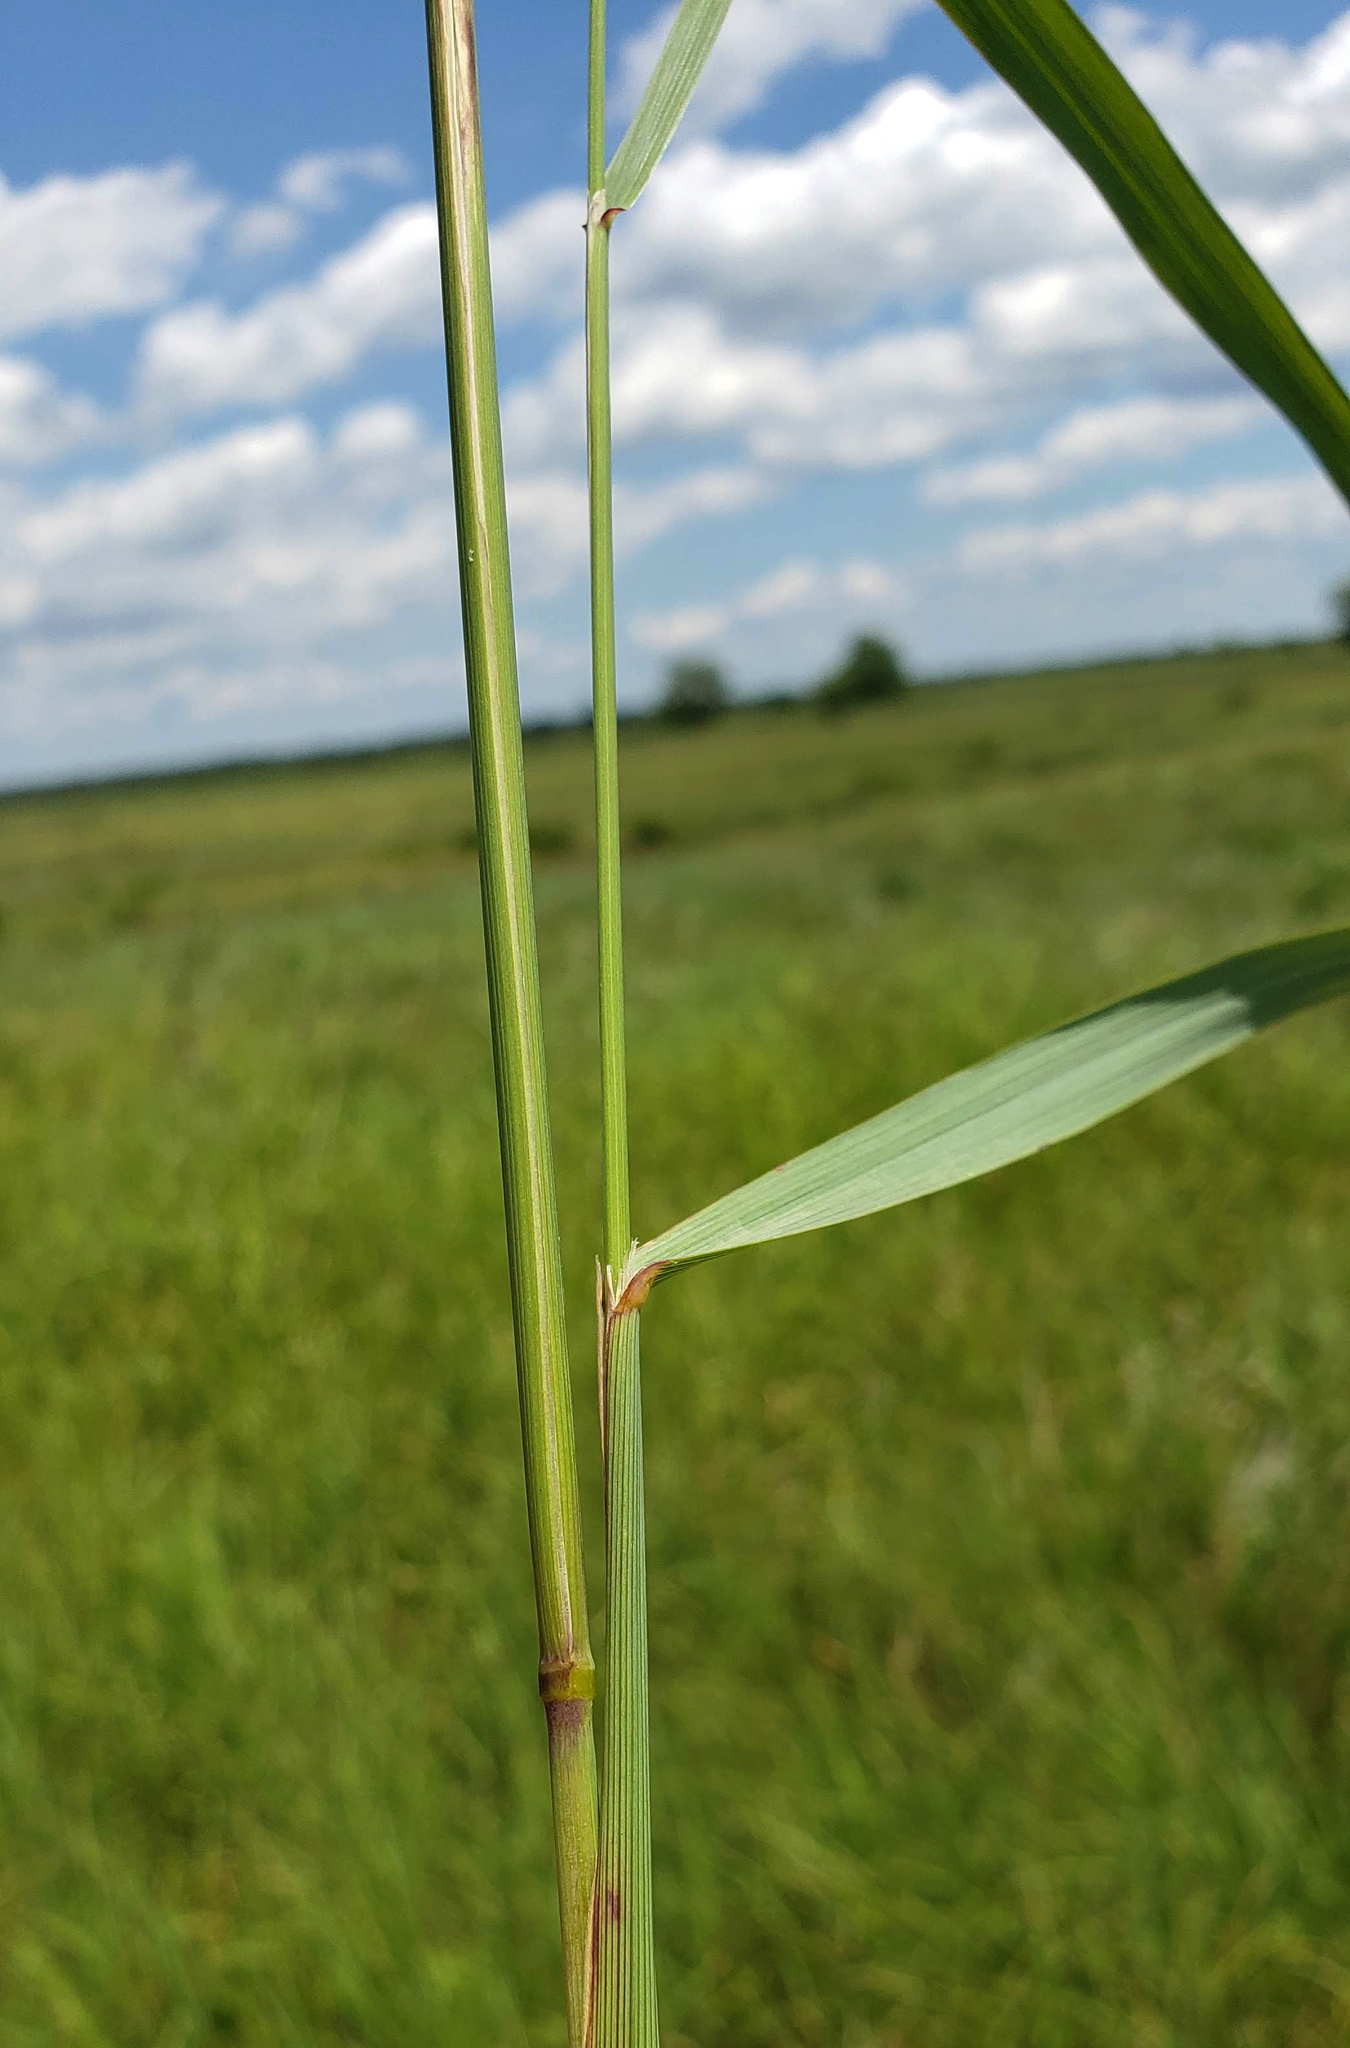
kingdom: Plantae
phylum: Tracheophyta
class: Liliopsida
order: Poales
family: Poaceae
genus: Calamagrostis
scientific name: Calamagrostis canadensis
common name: Canada bluejoint
